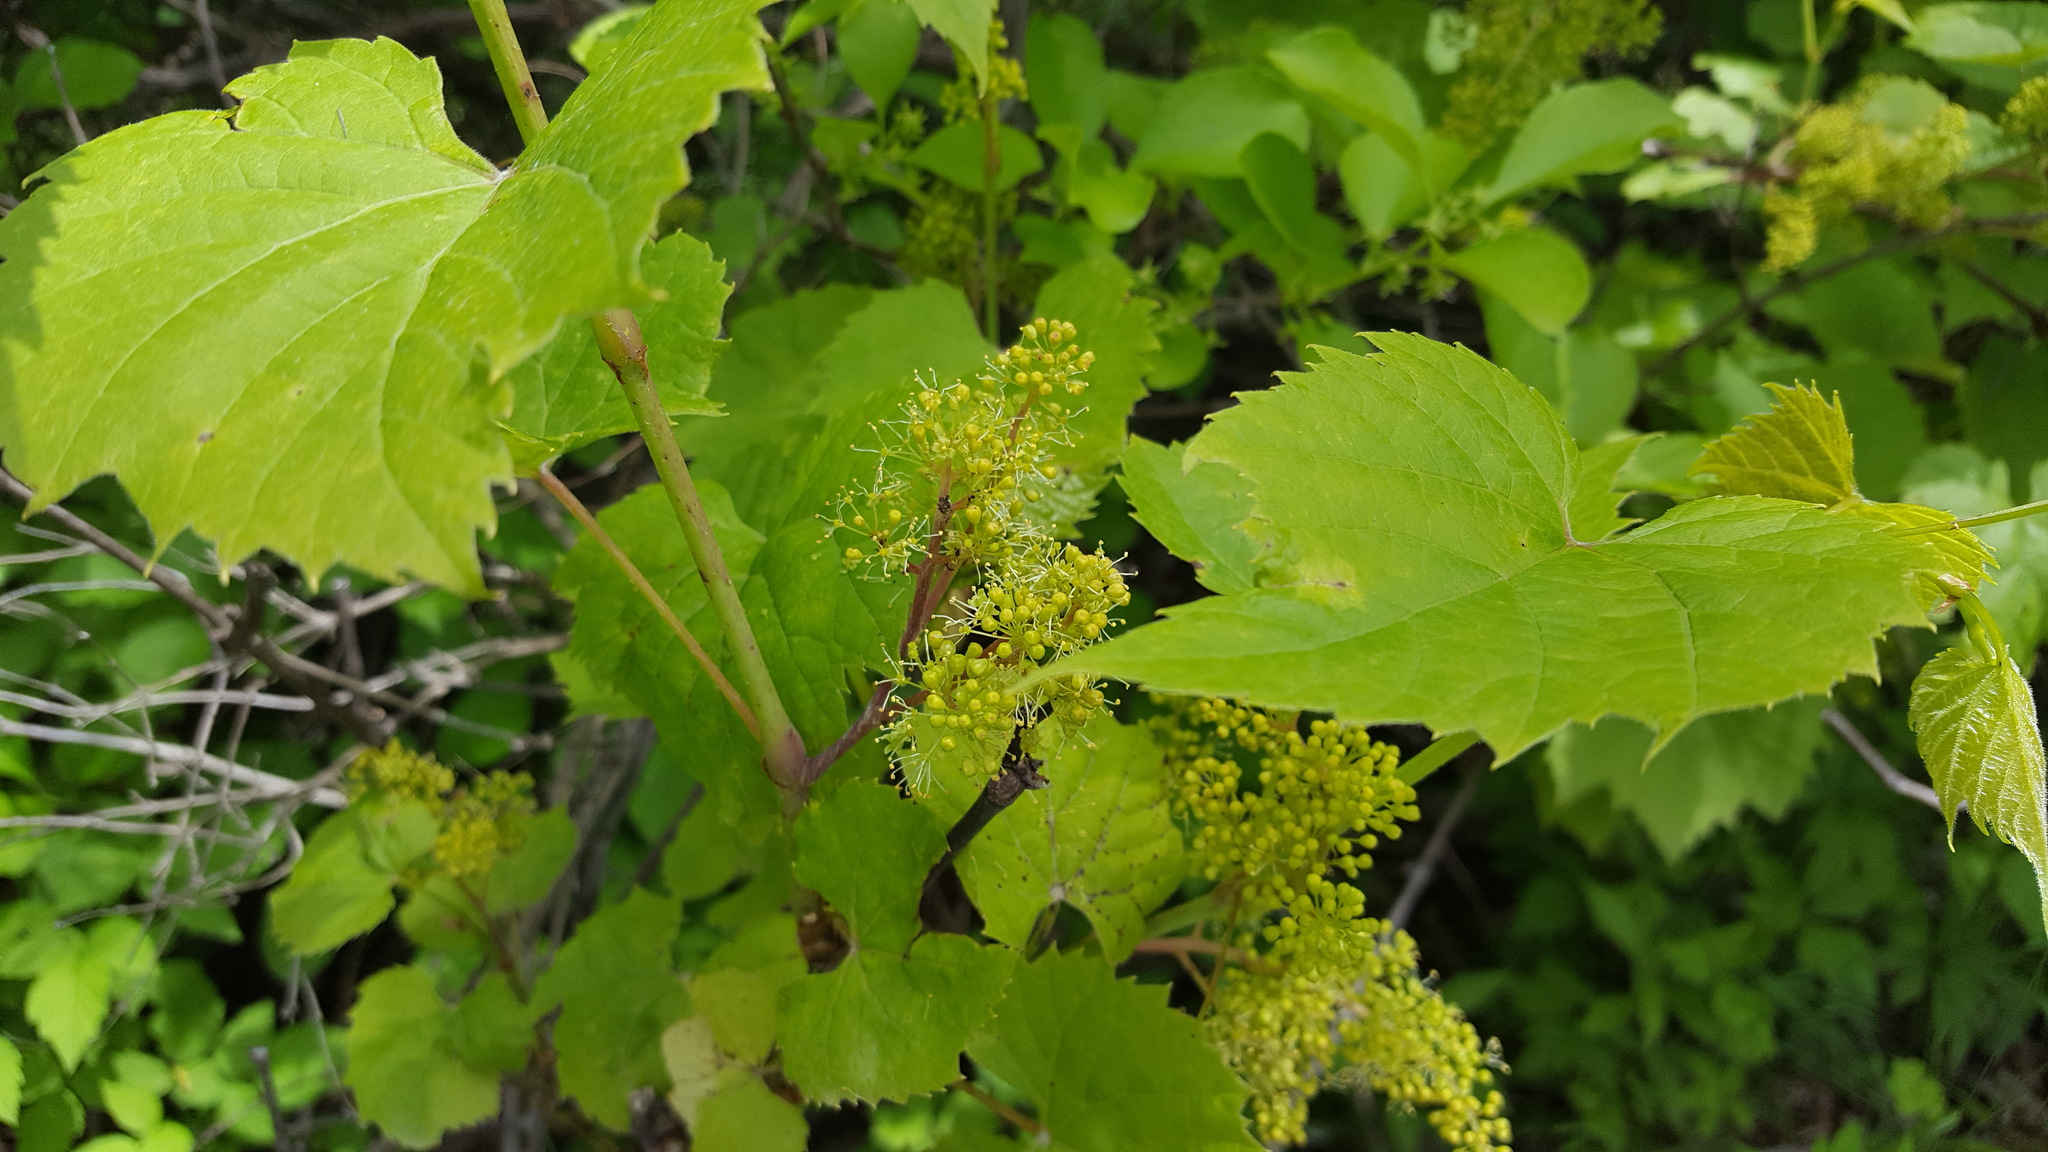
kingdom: Plantae
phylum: Tracheophyta
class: Magnoliopsida
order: Vitales
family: Vitaceae
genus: Vitis
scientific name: Vitis aestivalis
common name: Pigeon grape
